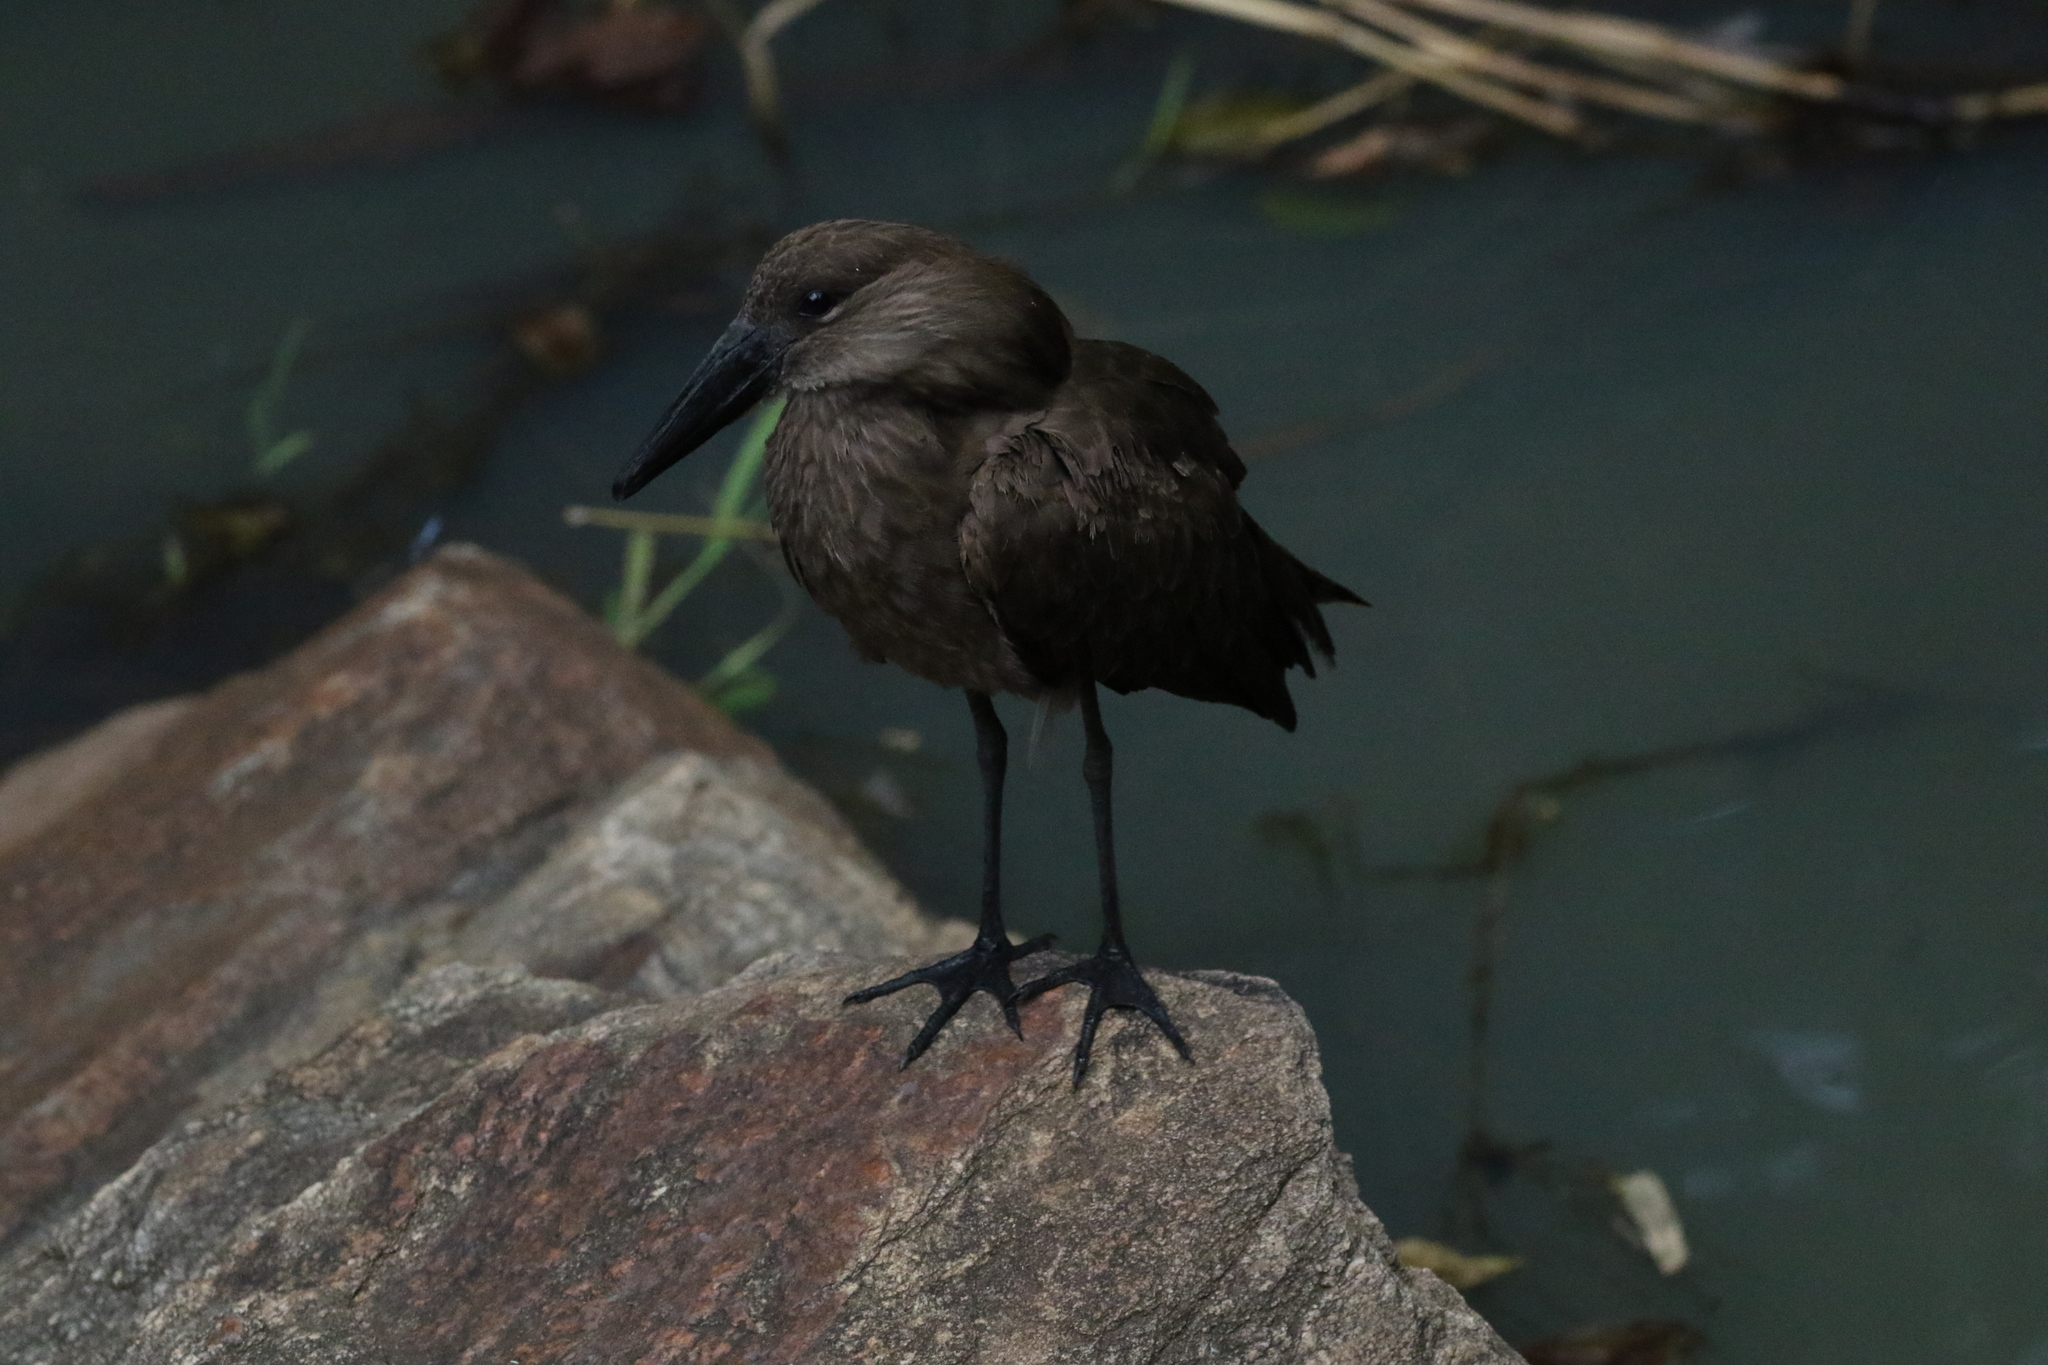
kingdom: Animalia
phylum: Chordata
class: Aves
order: Pelecaniformes
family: Scopidae
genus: Scopus
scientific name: Scopus umbretta
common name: Hamerkop
